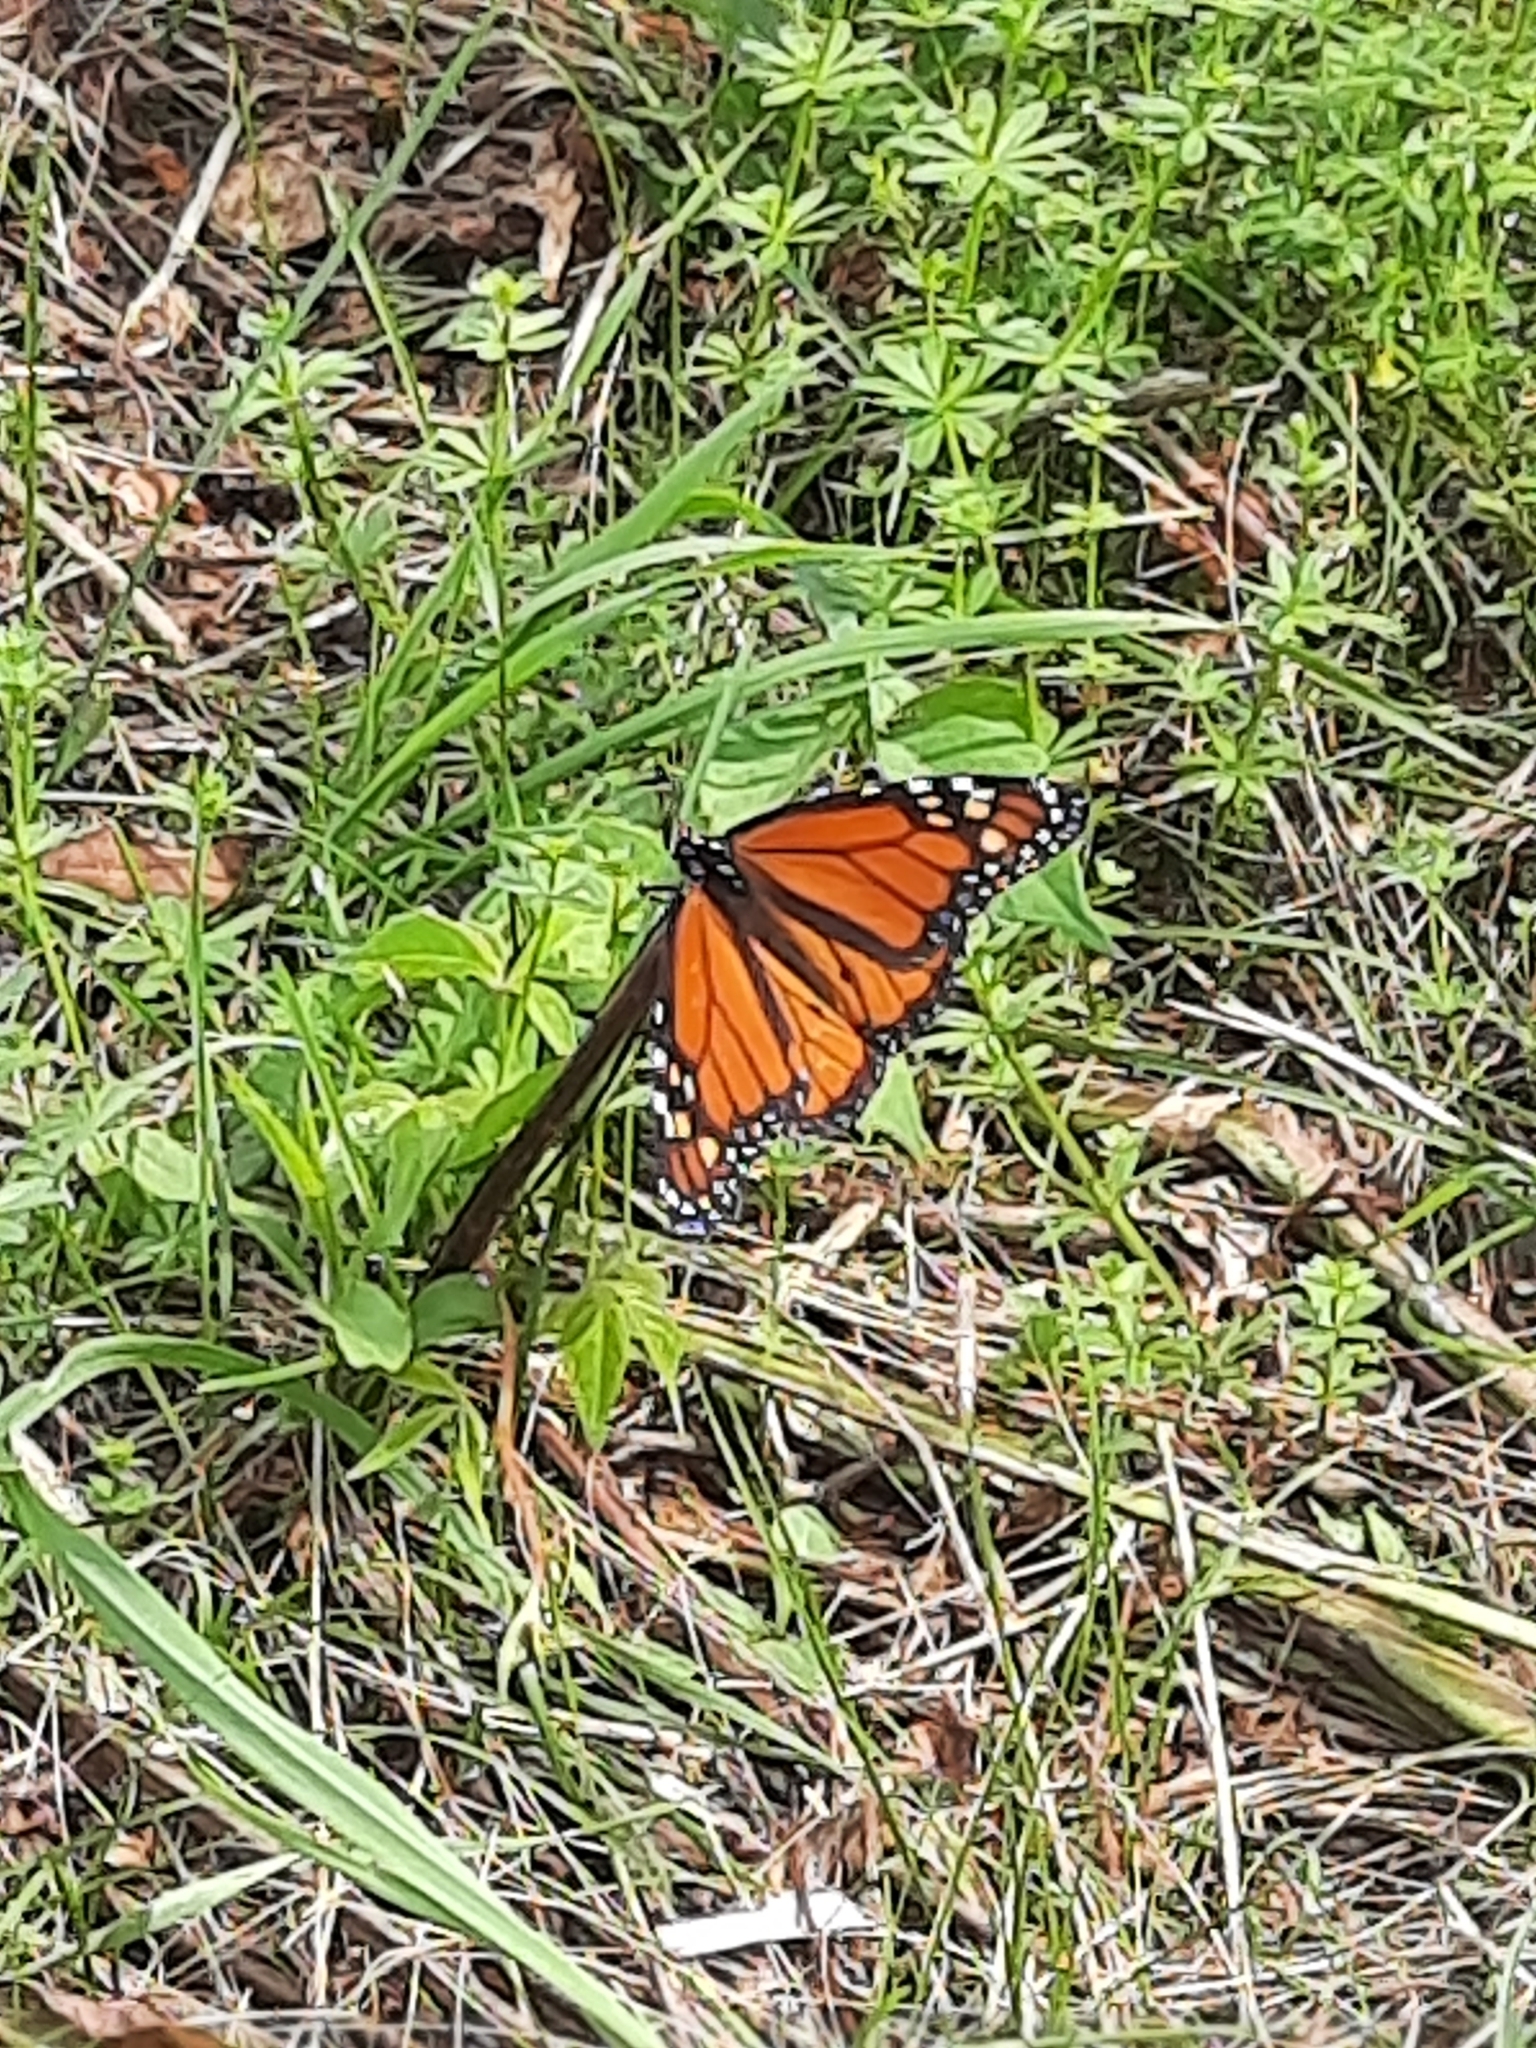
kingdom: Animalia
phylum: Arthropoda
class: Insecta
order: Lepidoptera
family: Nymphalidae
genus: Danaus
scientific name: Danaus plexippus
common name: Monarch
